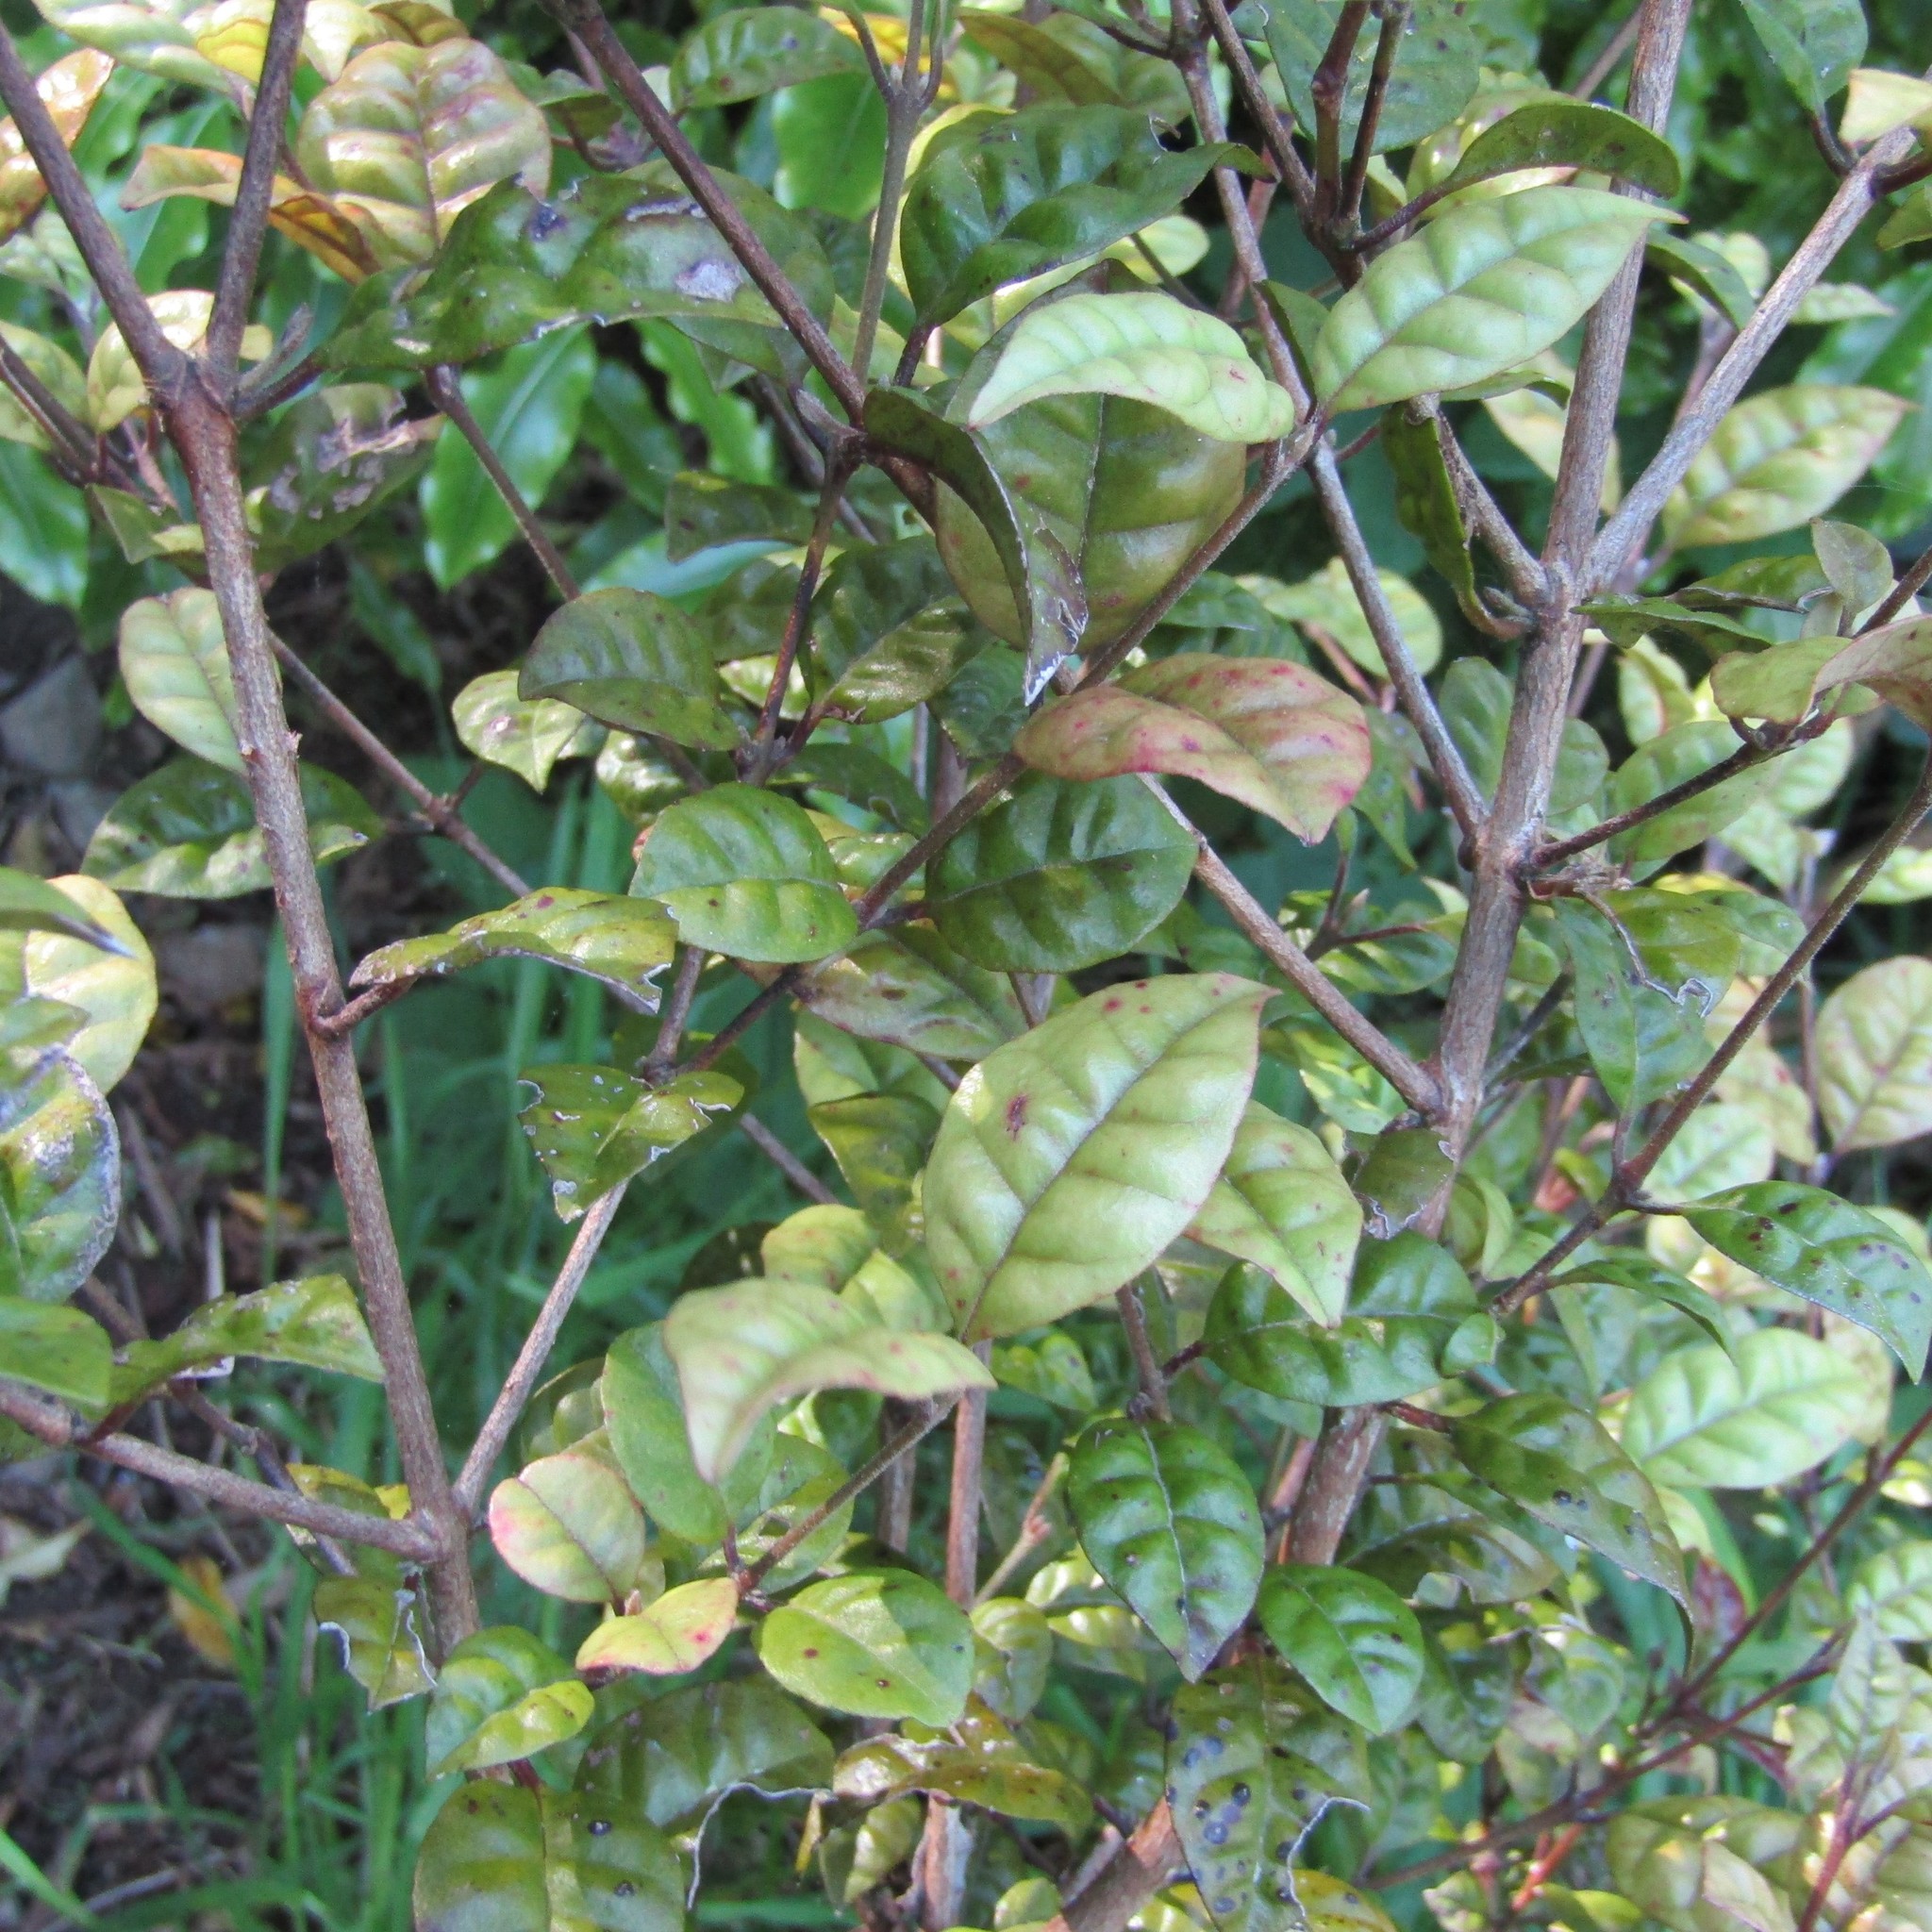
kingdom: Plantae
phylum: Tracheophyta
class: Magnoliopsida
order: Myrtales
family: Myrtaceae
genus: Lophomyrtus
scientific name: Lophomyrtus bullata
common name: Rama rama
